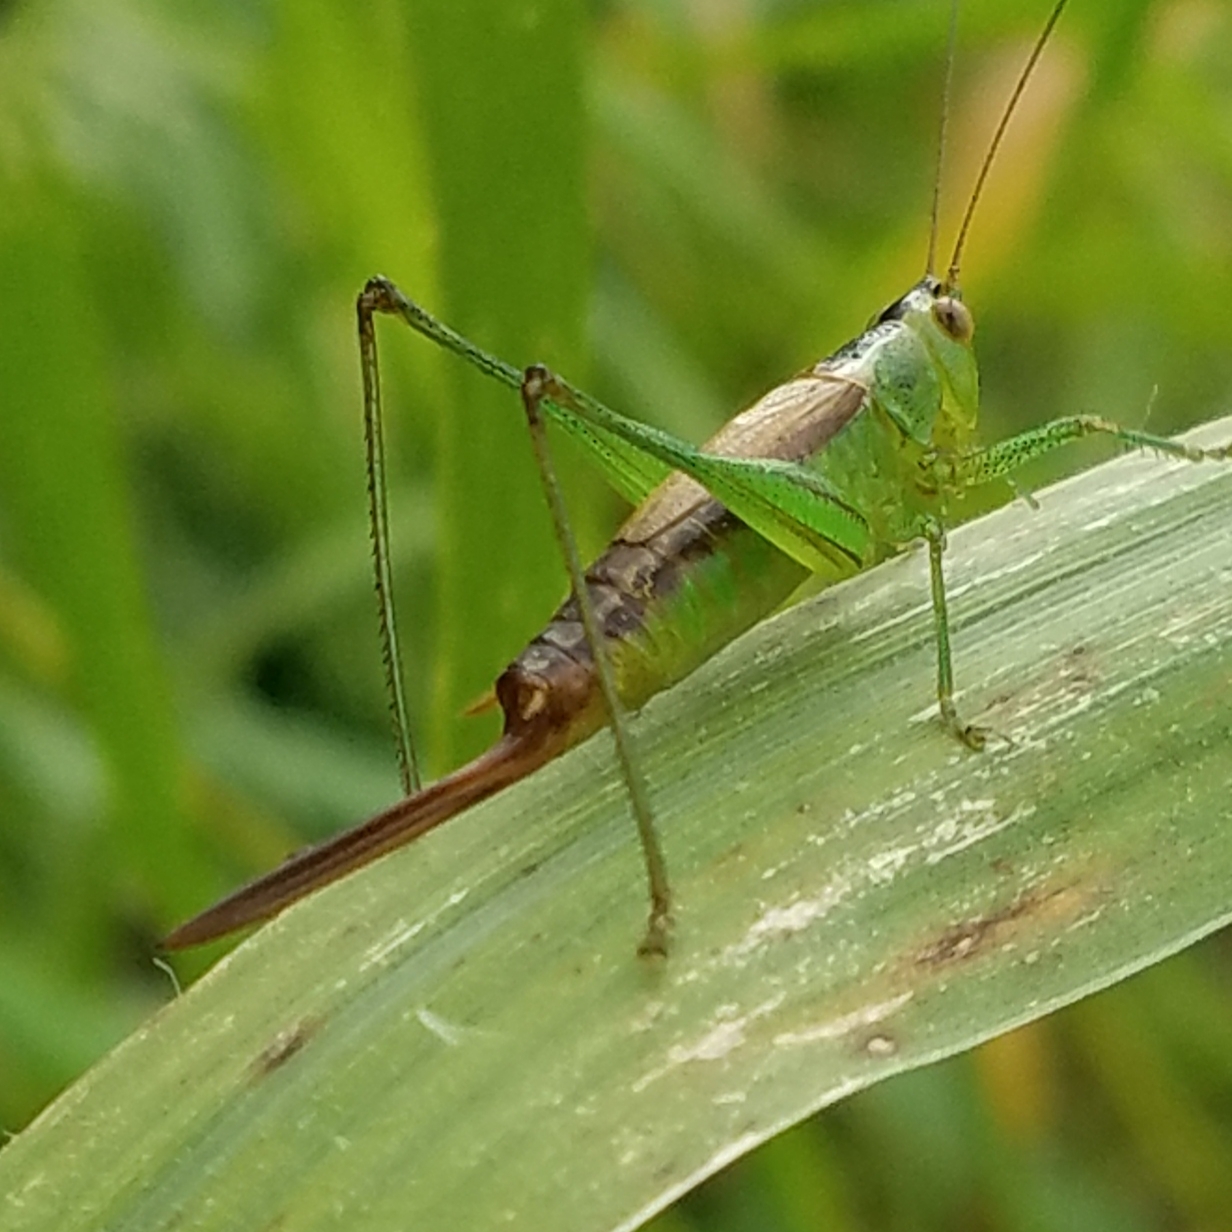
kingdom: Animalia
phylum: Arthropoda
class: Insecta
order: Orthoptera
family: Tettigoniidae
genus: Conocephalus
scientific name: Conocephalus brevipennis
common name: Short-winged meadow katydid
